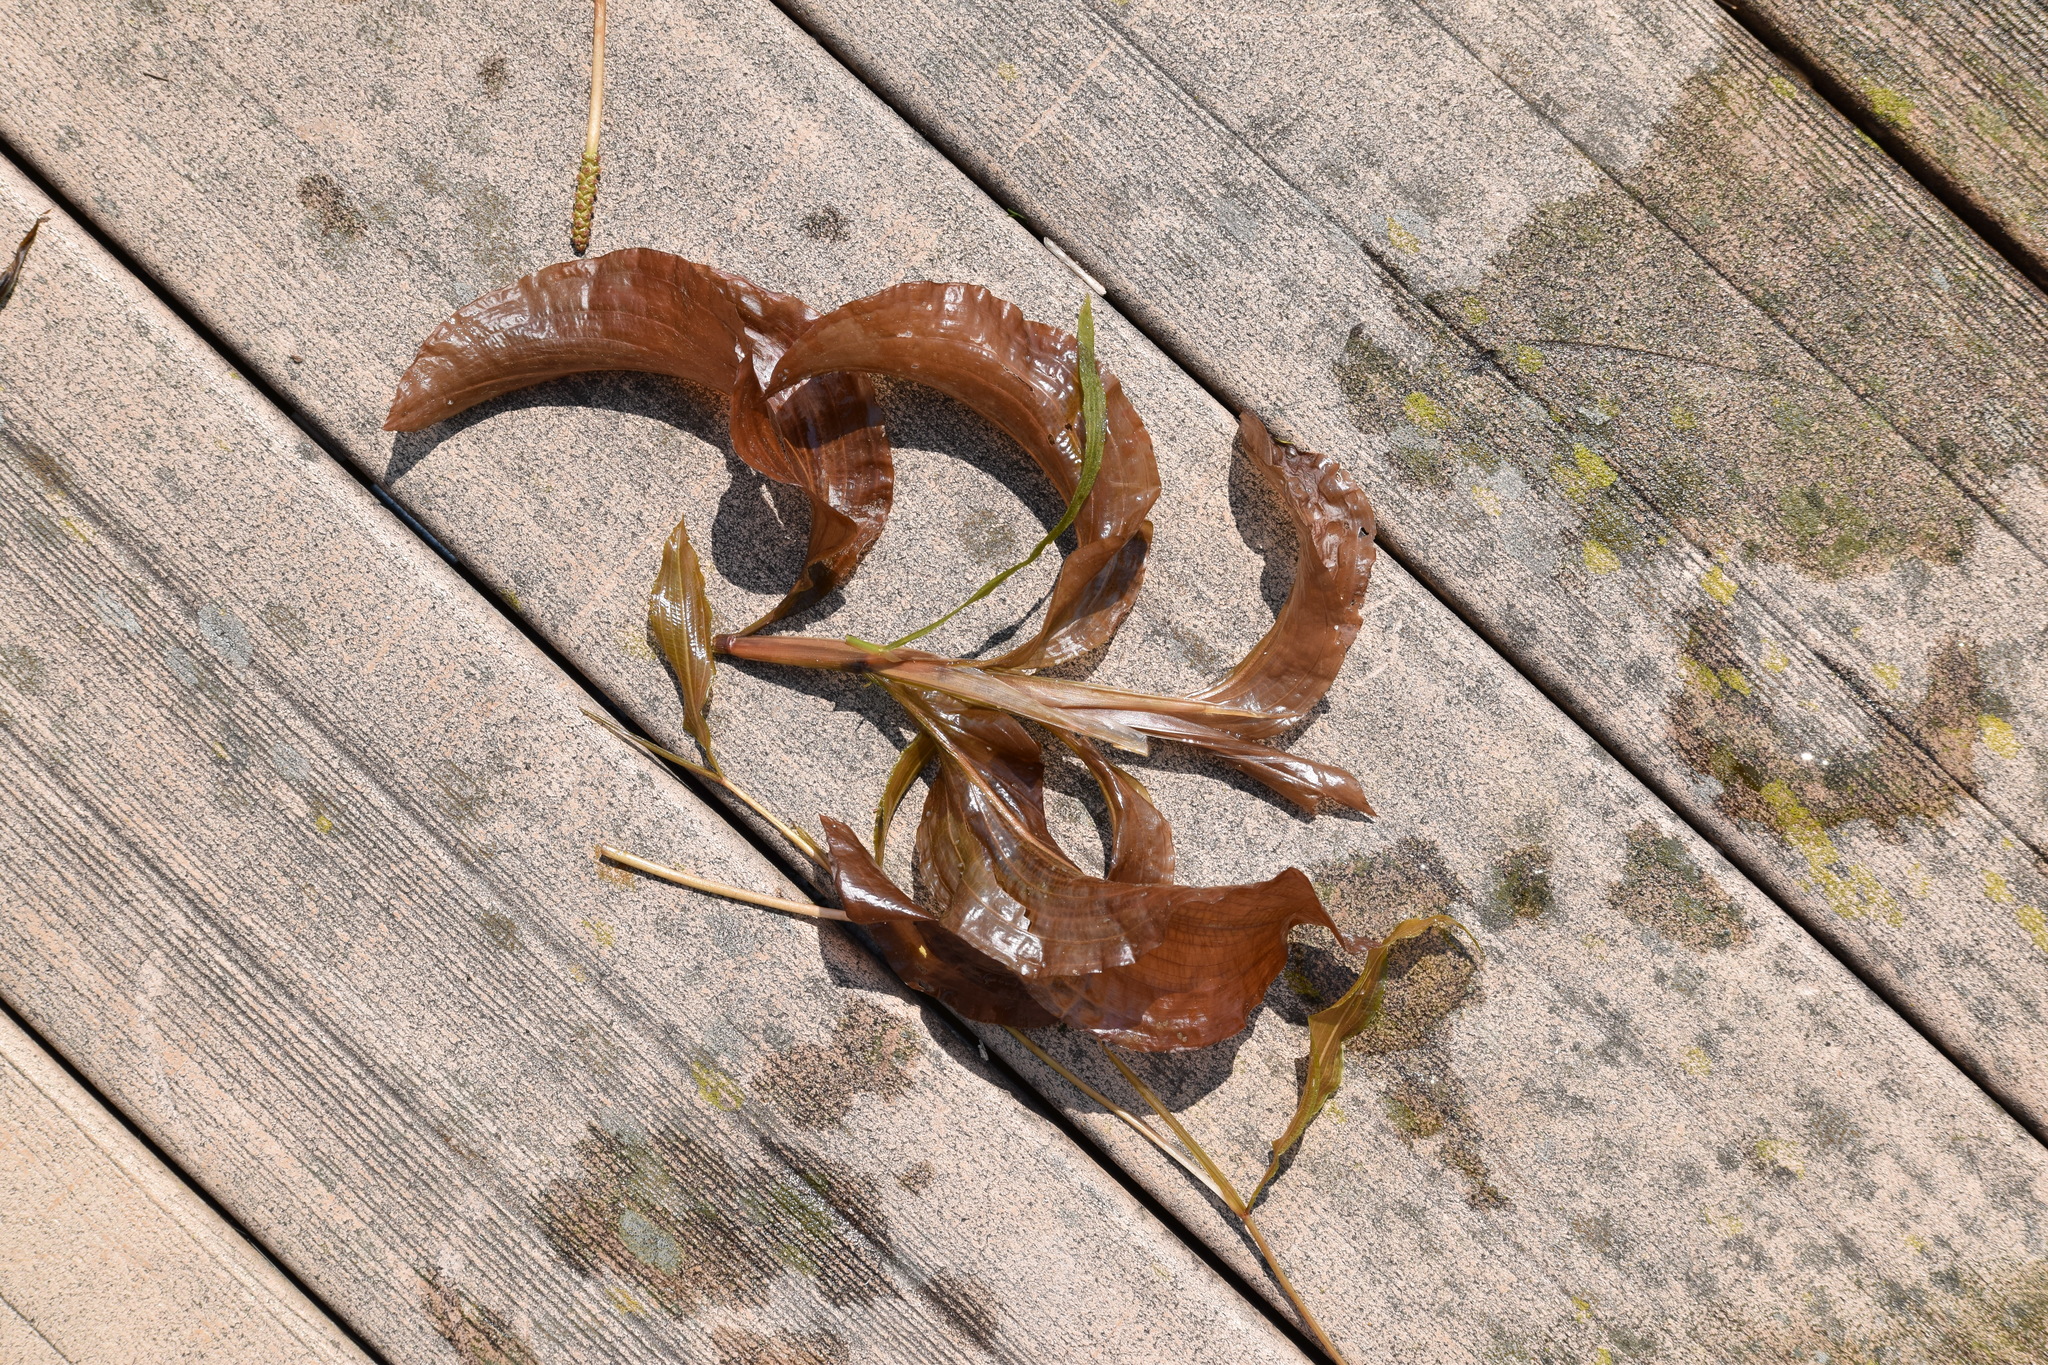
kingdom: Plantae
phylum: Tracheophyta
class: Liliopsida
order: Alismatales
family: Potamogetonaceae
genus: Potamogeton
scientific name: Potamogeton amplifolius
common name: Broad-leaved pondweed
